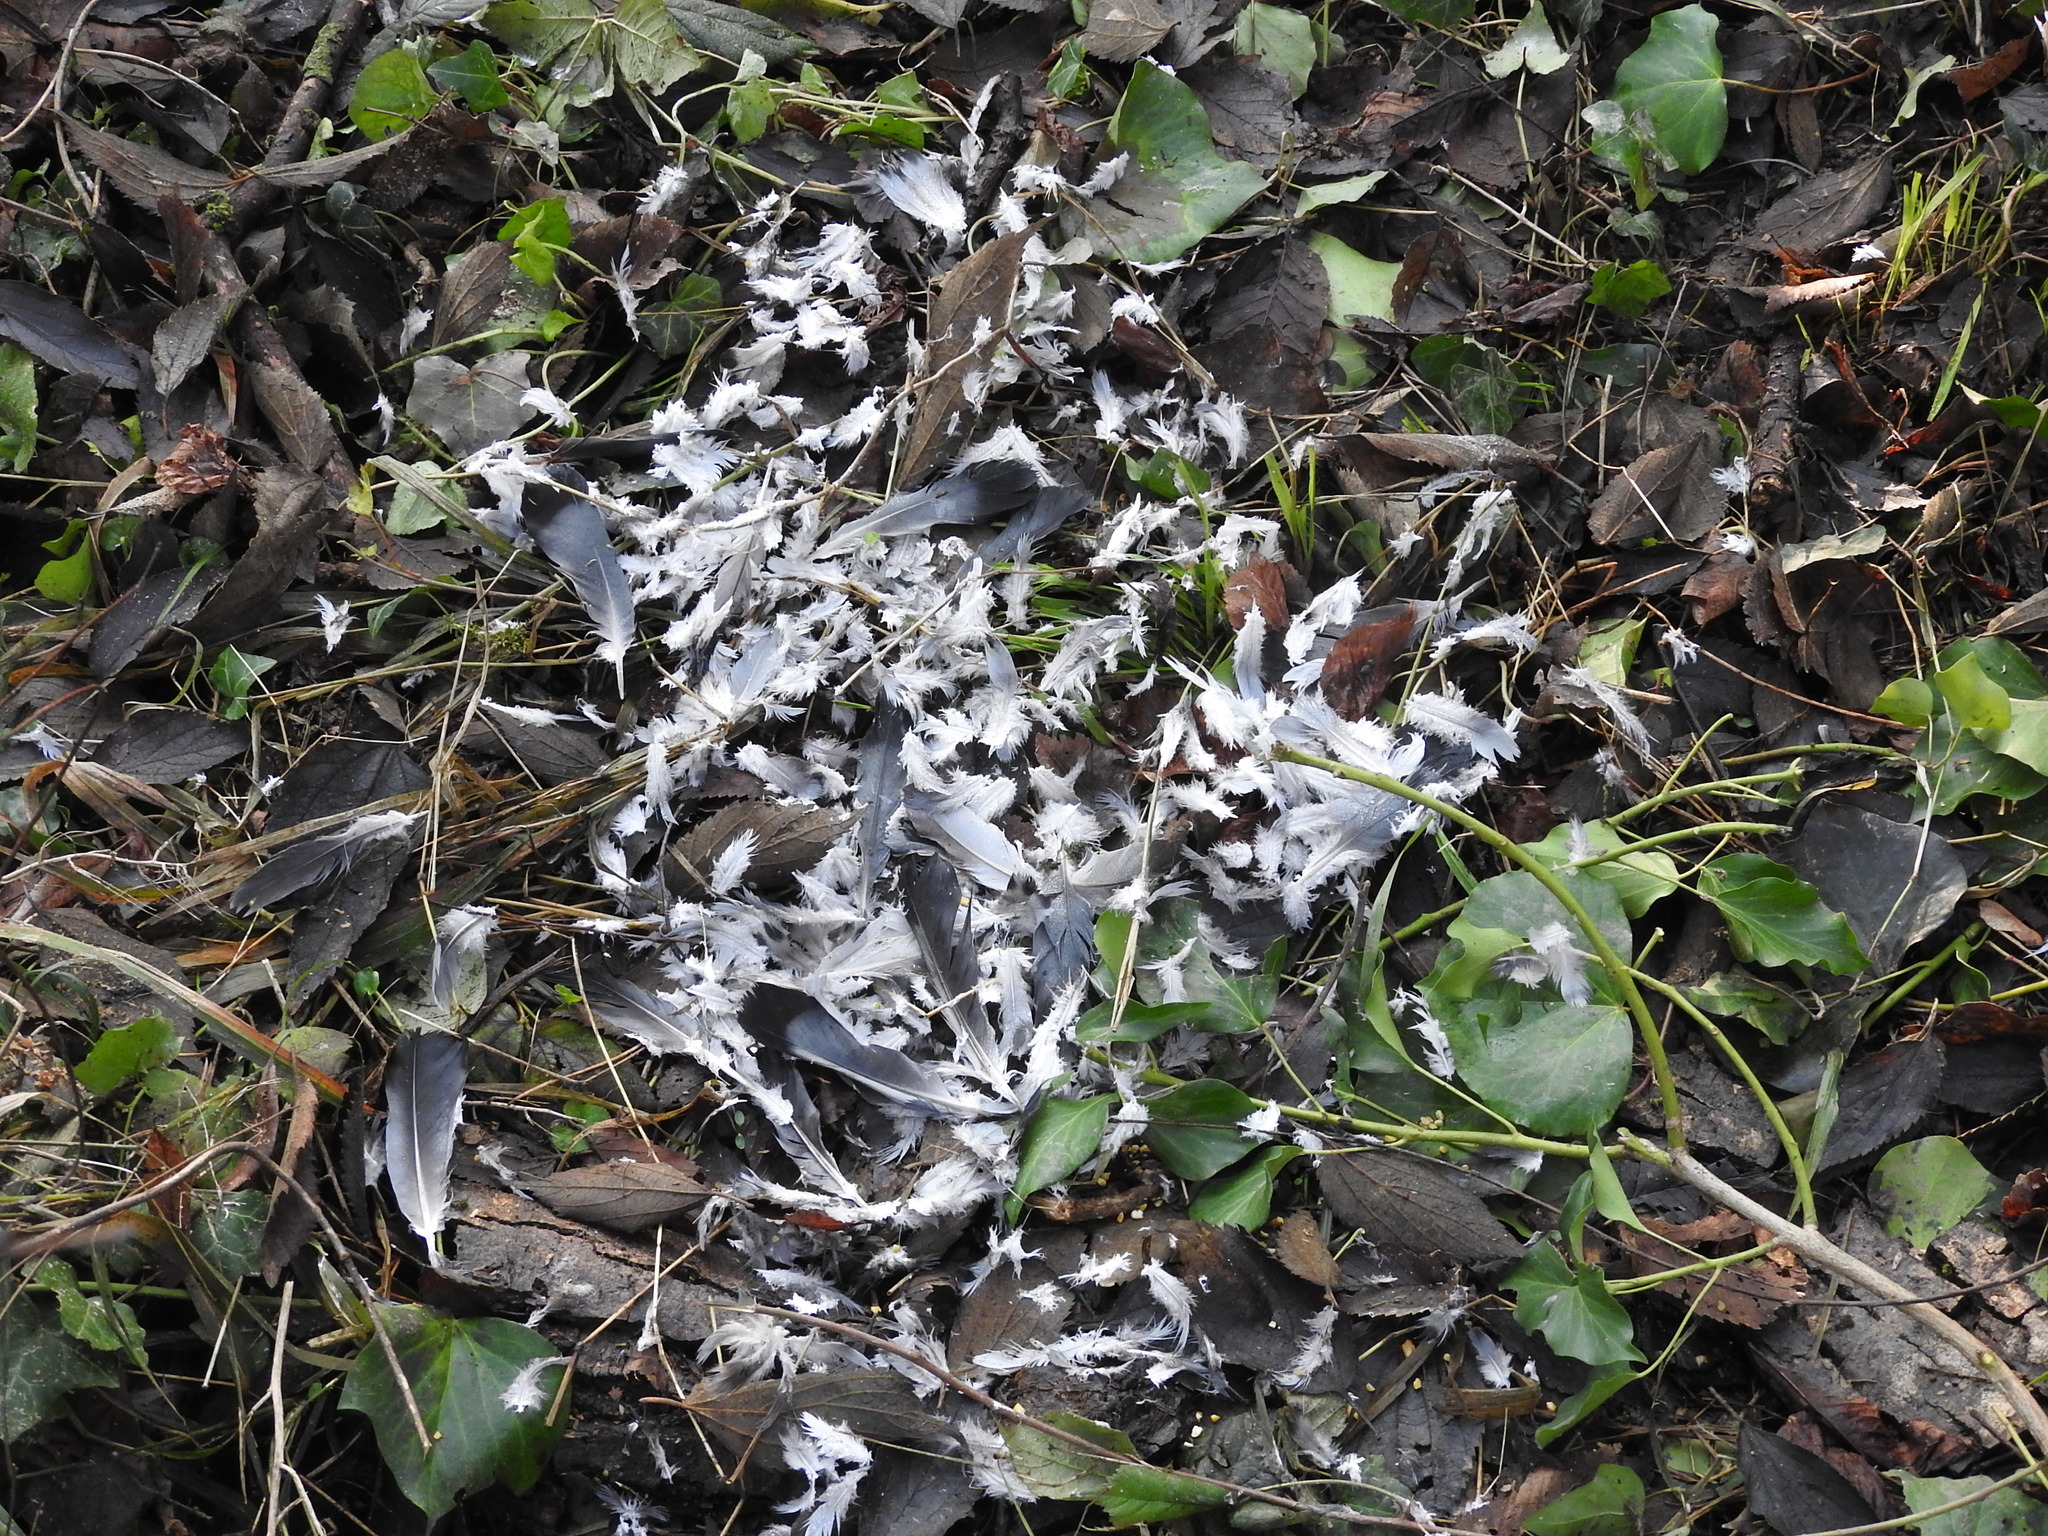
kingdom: Animalia
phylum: Chordata
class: Aves
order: Columbiformes
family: Columbidae
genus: Columba
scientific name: Columba livia
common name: Rock pigeon
